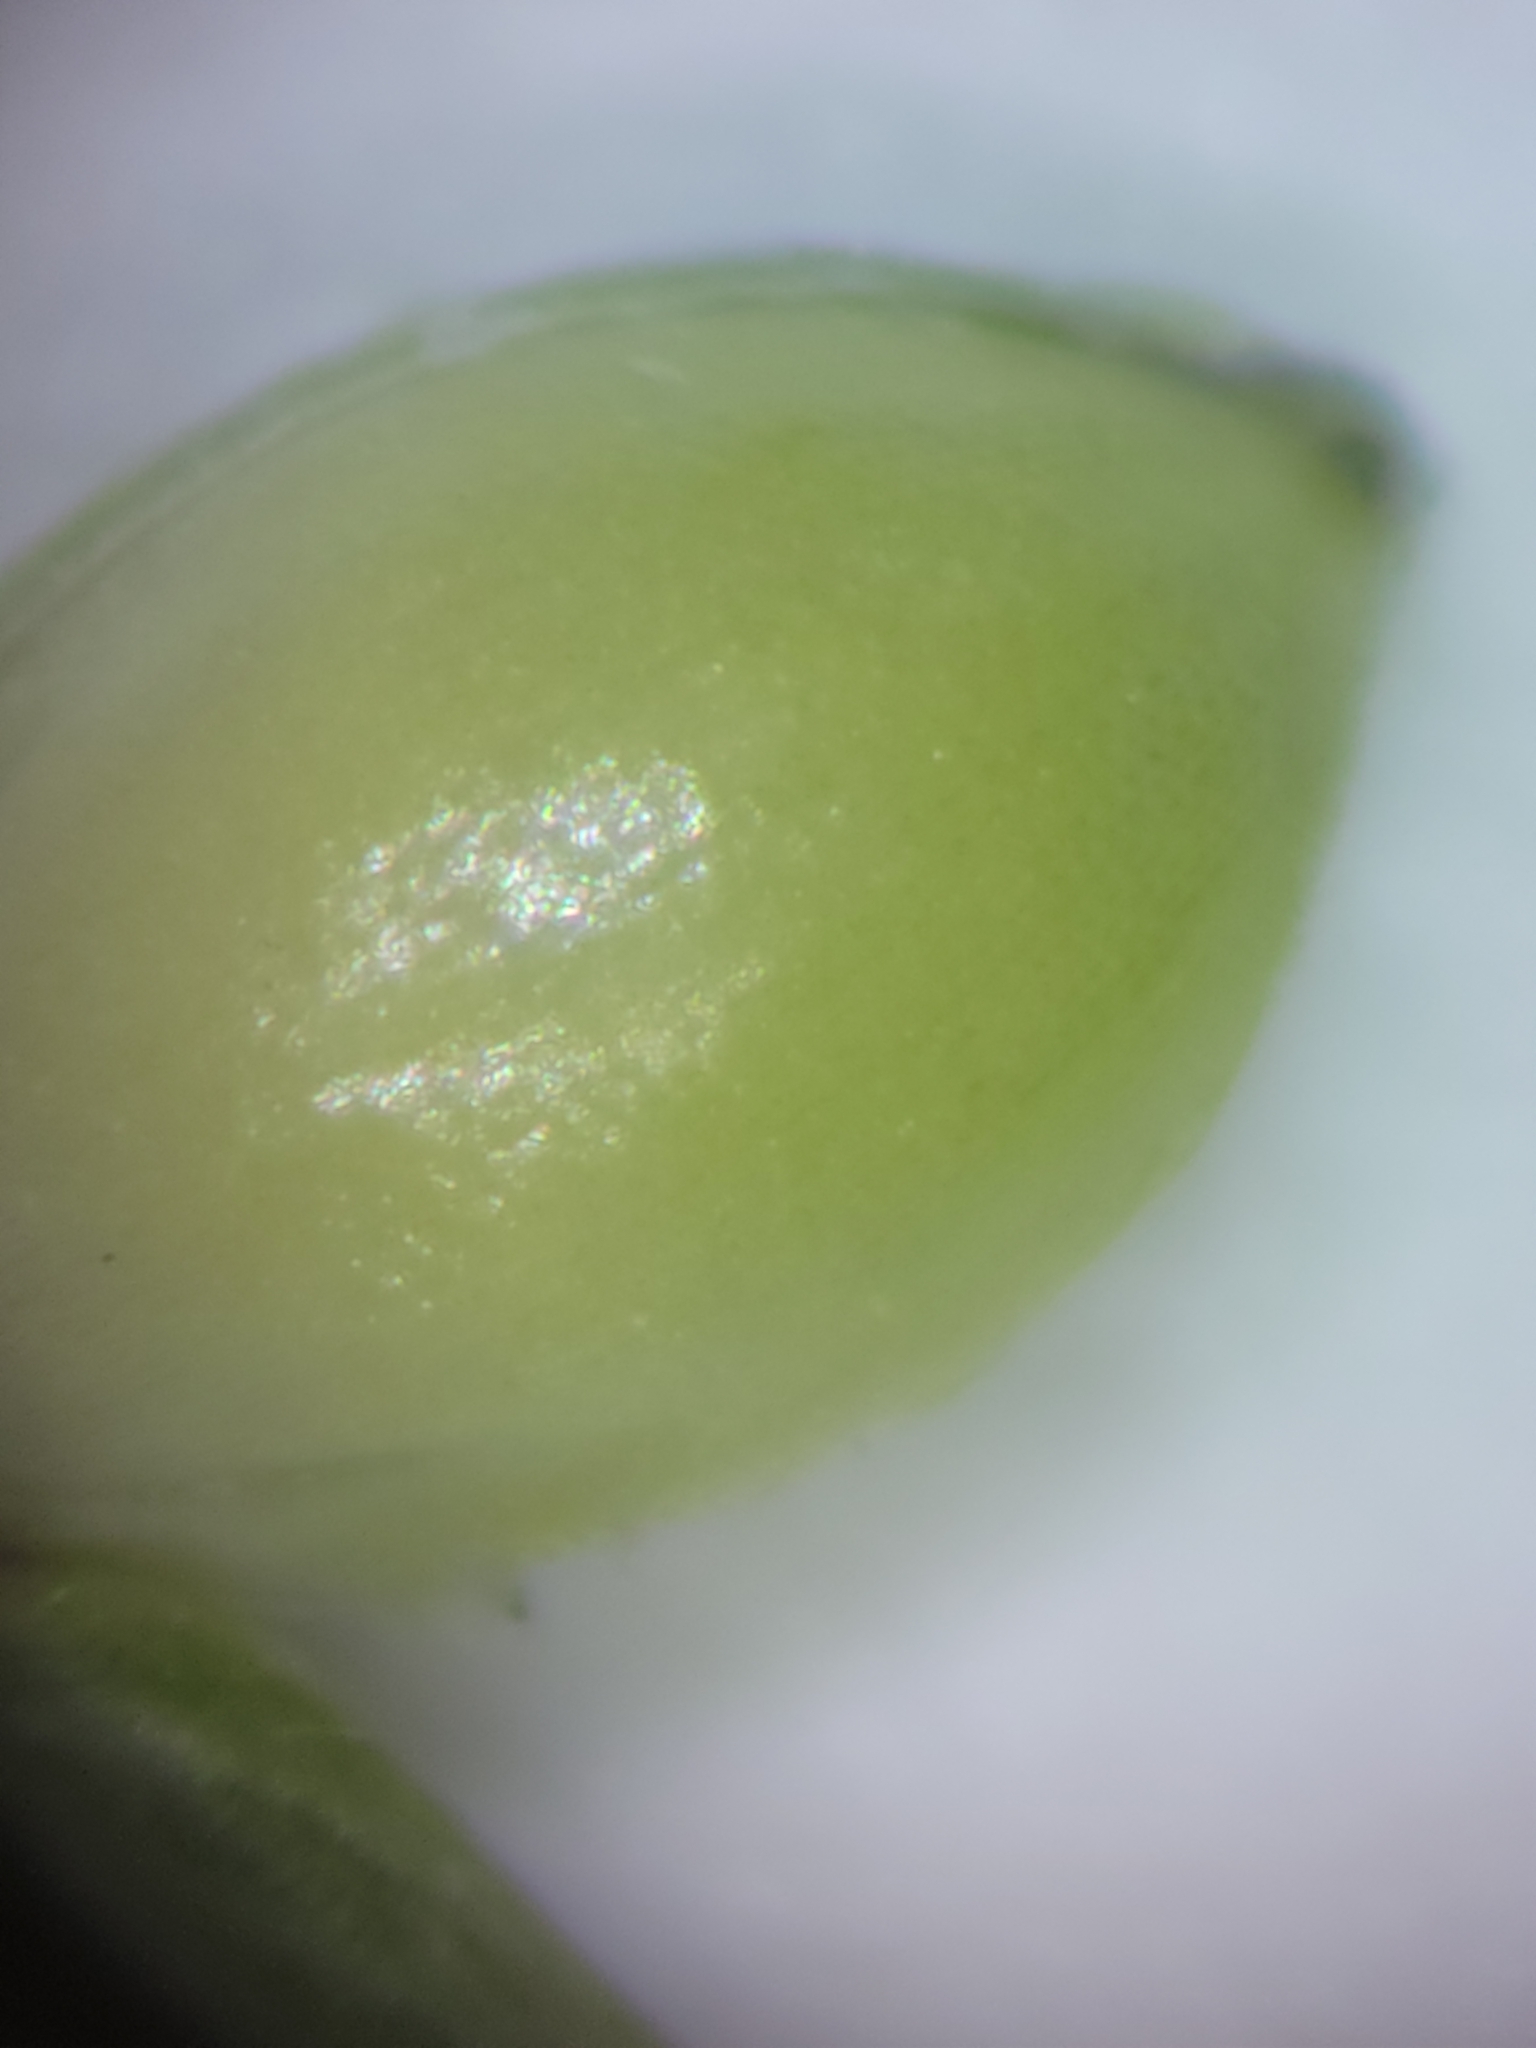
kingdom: Plantae
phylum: Tracheophyta
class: Liliopsida
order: Poales
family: Poaceae
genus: Dichanthelium
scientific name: Dichanthelium webberianum
